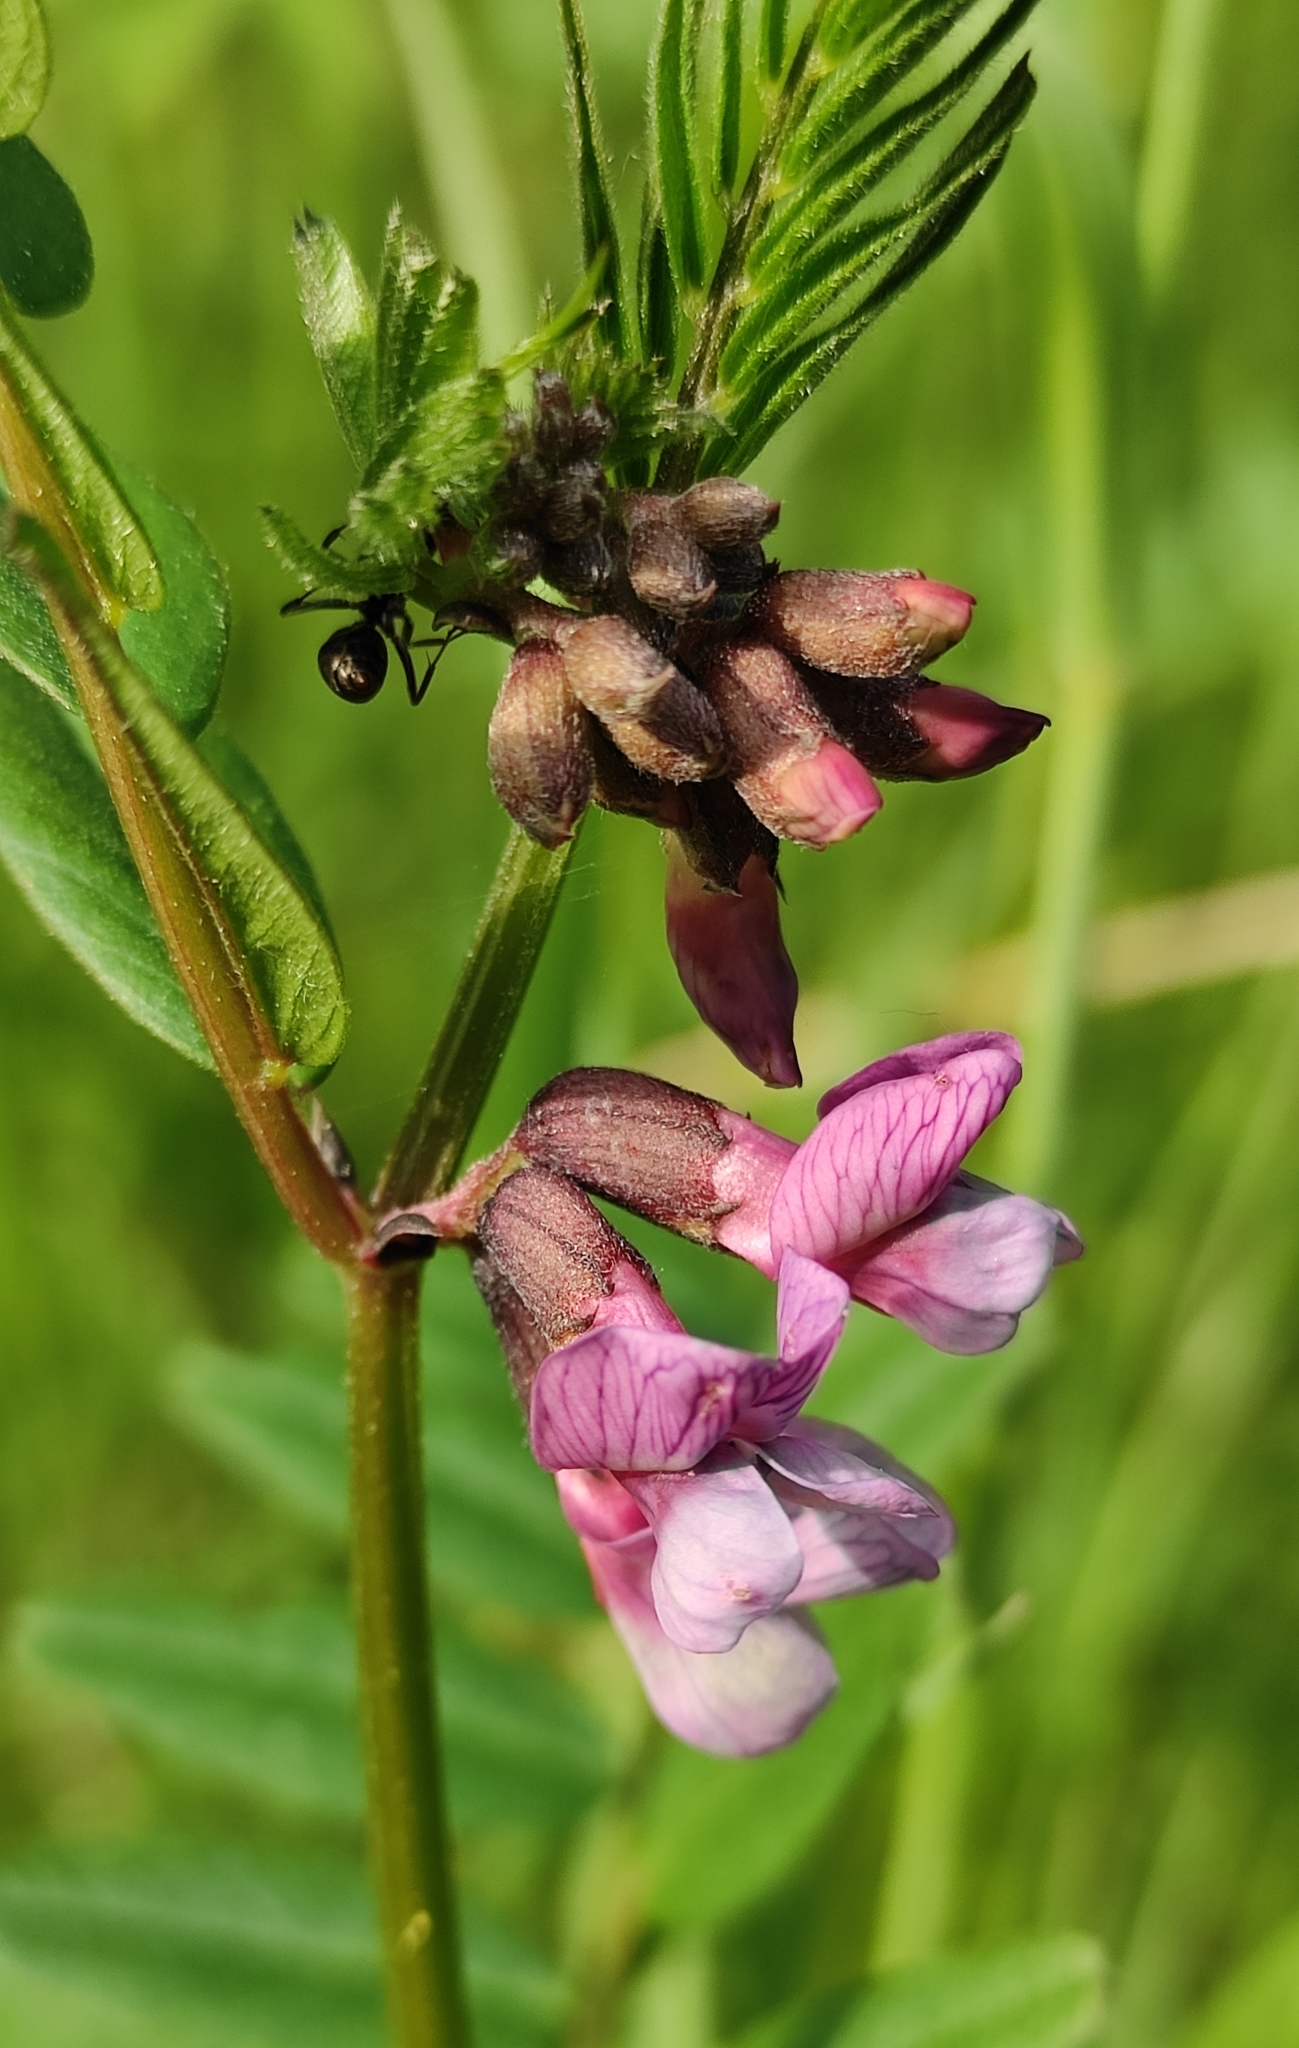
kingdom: Plantae
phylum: Tracheophyta
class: Magnoliopsida
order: Fabales
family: Fabaceae
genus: Vicia
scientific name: Vicia sepium
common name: Bush vetch
